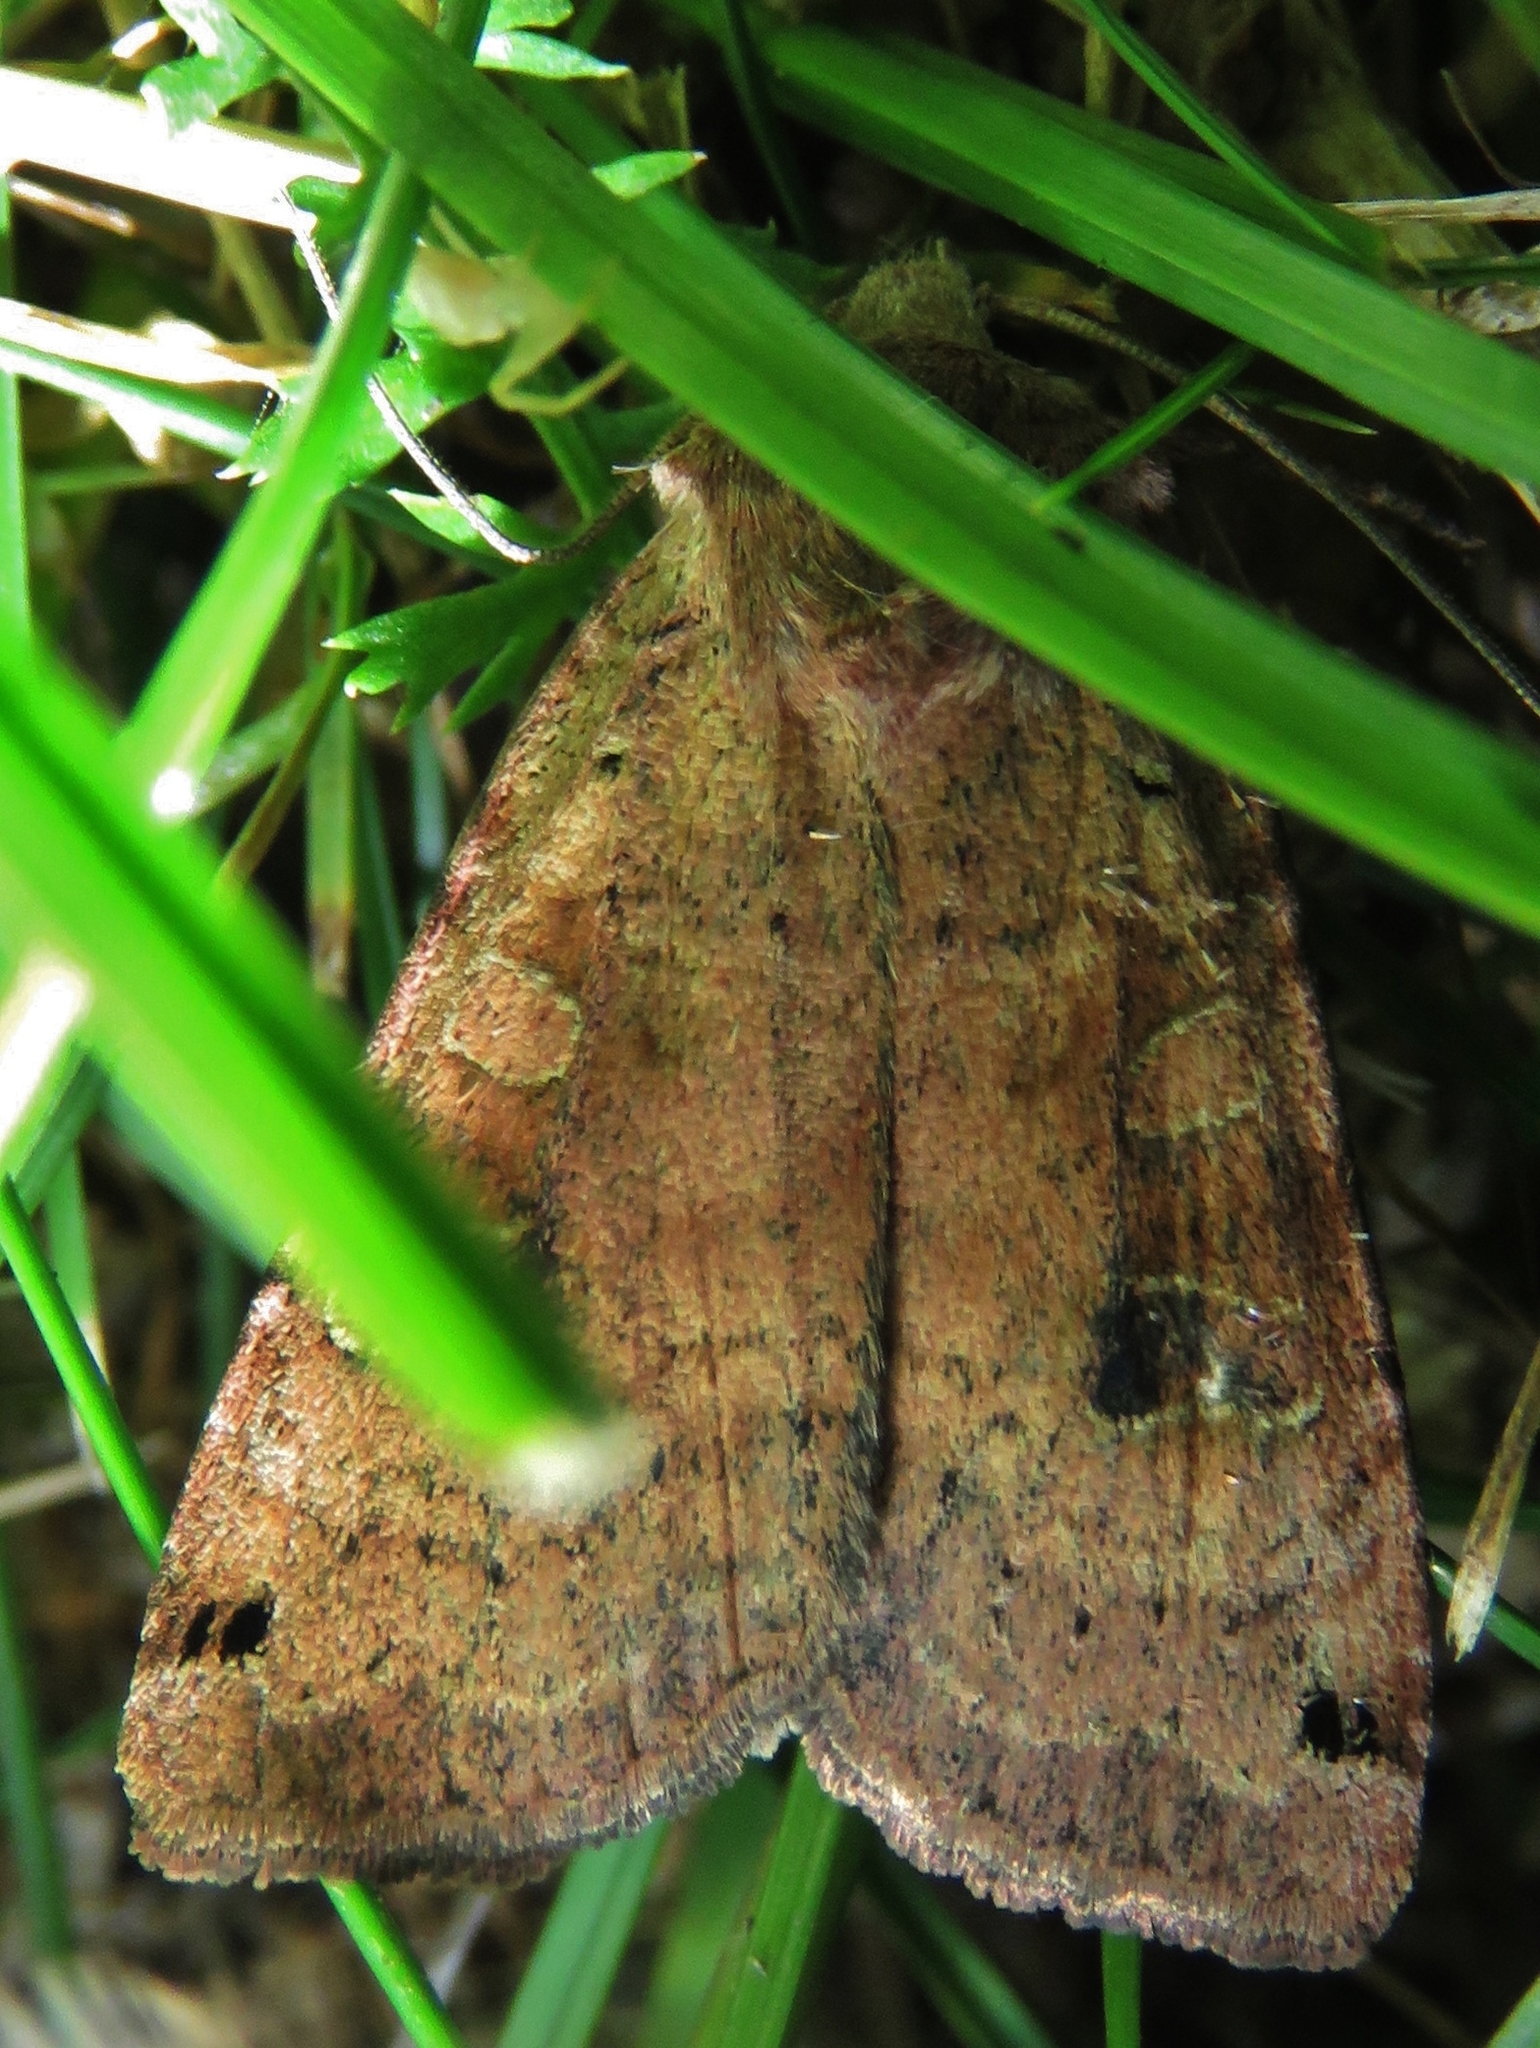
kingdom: Animalia
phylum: Arthropoda
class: Insecta
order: Lepidoptera
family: Noctuidae
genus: Xestia
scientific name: Xestia baja
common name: Dotted clay
